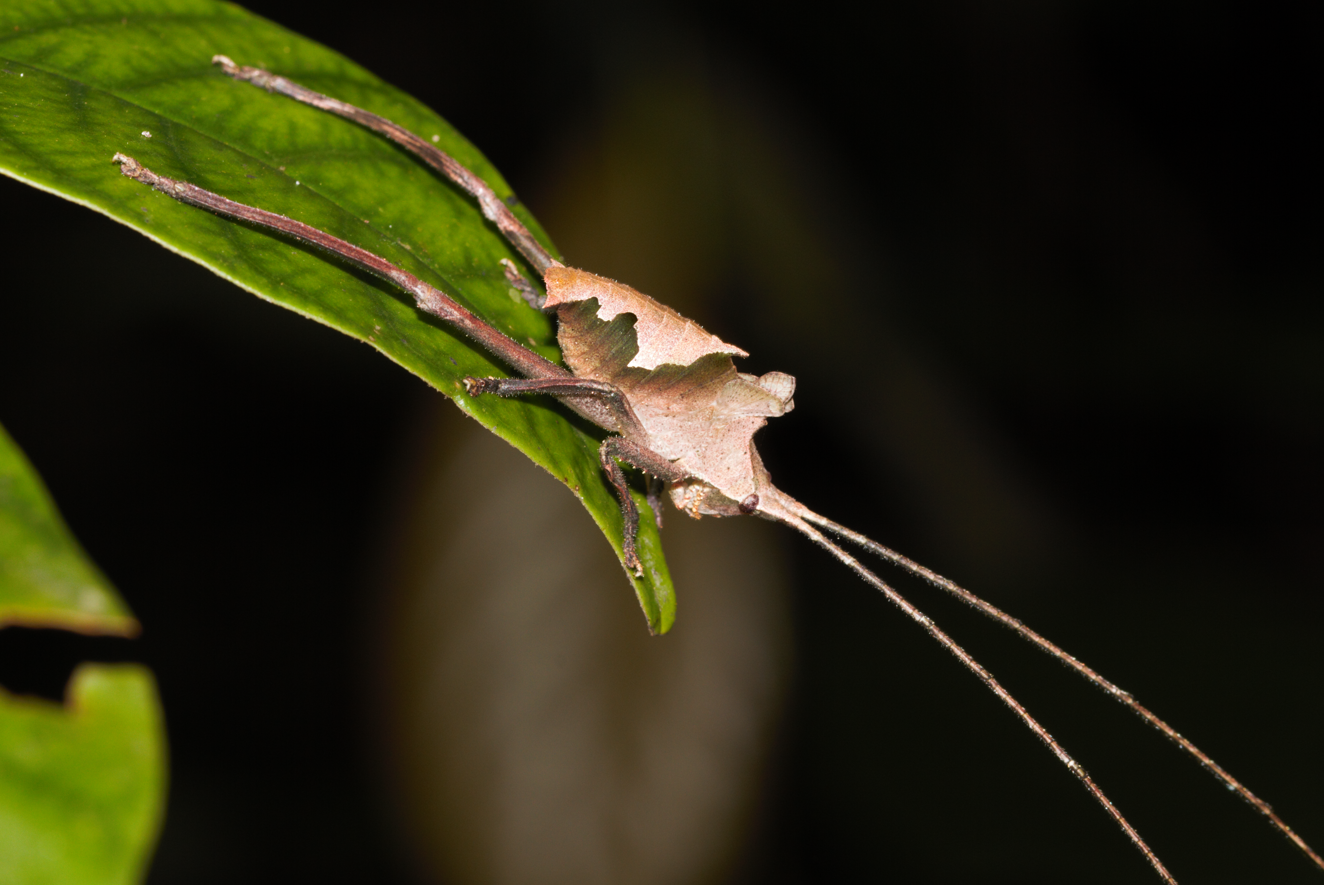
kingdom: Animalia
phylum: Arthropoda
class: Insecta
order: Orthoptera
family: Tettigoniidae
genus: Pterochroza
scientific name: Pterochroza ocellata
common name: Peacock katydid
